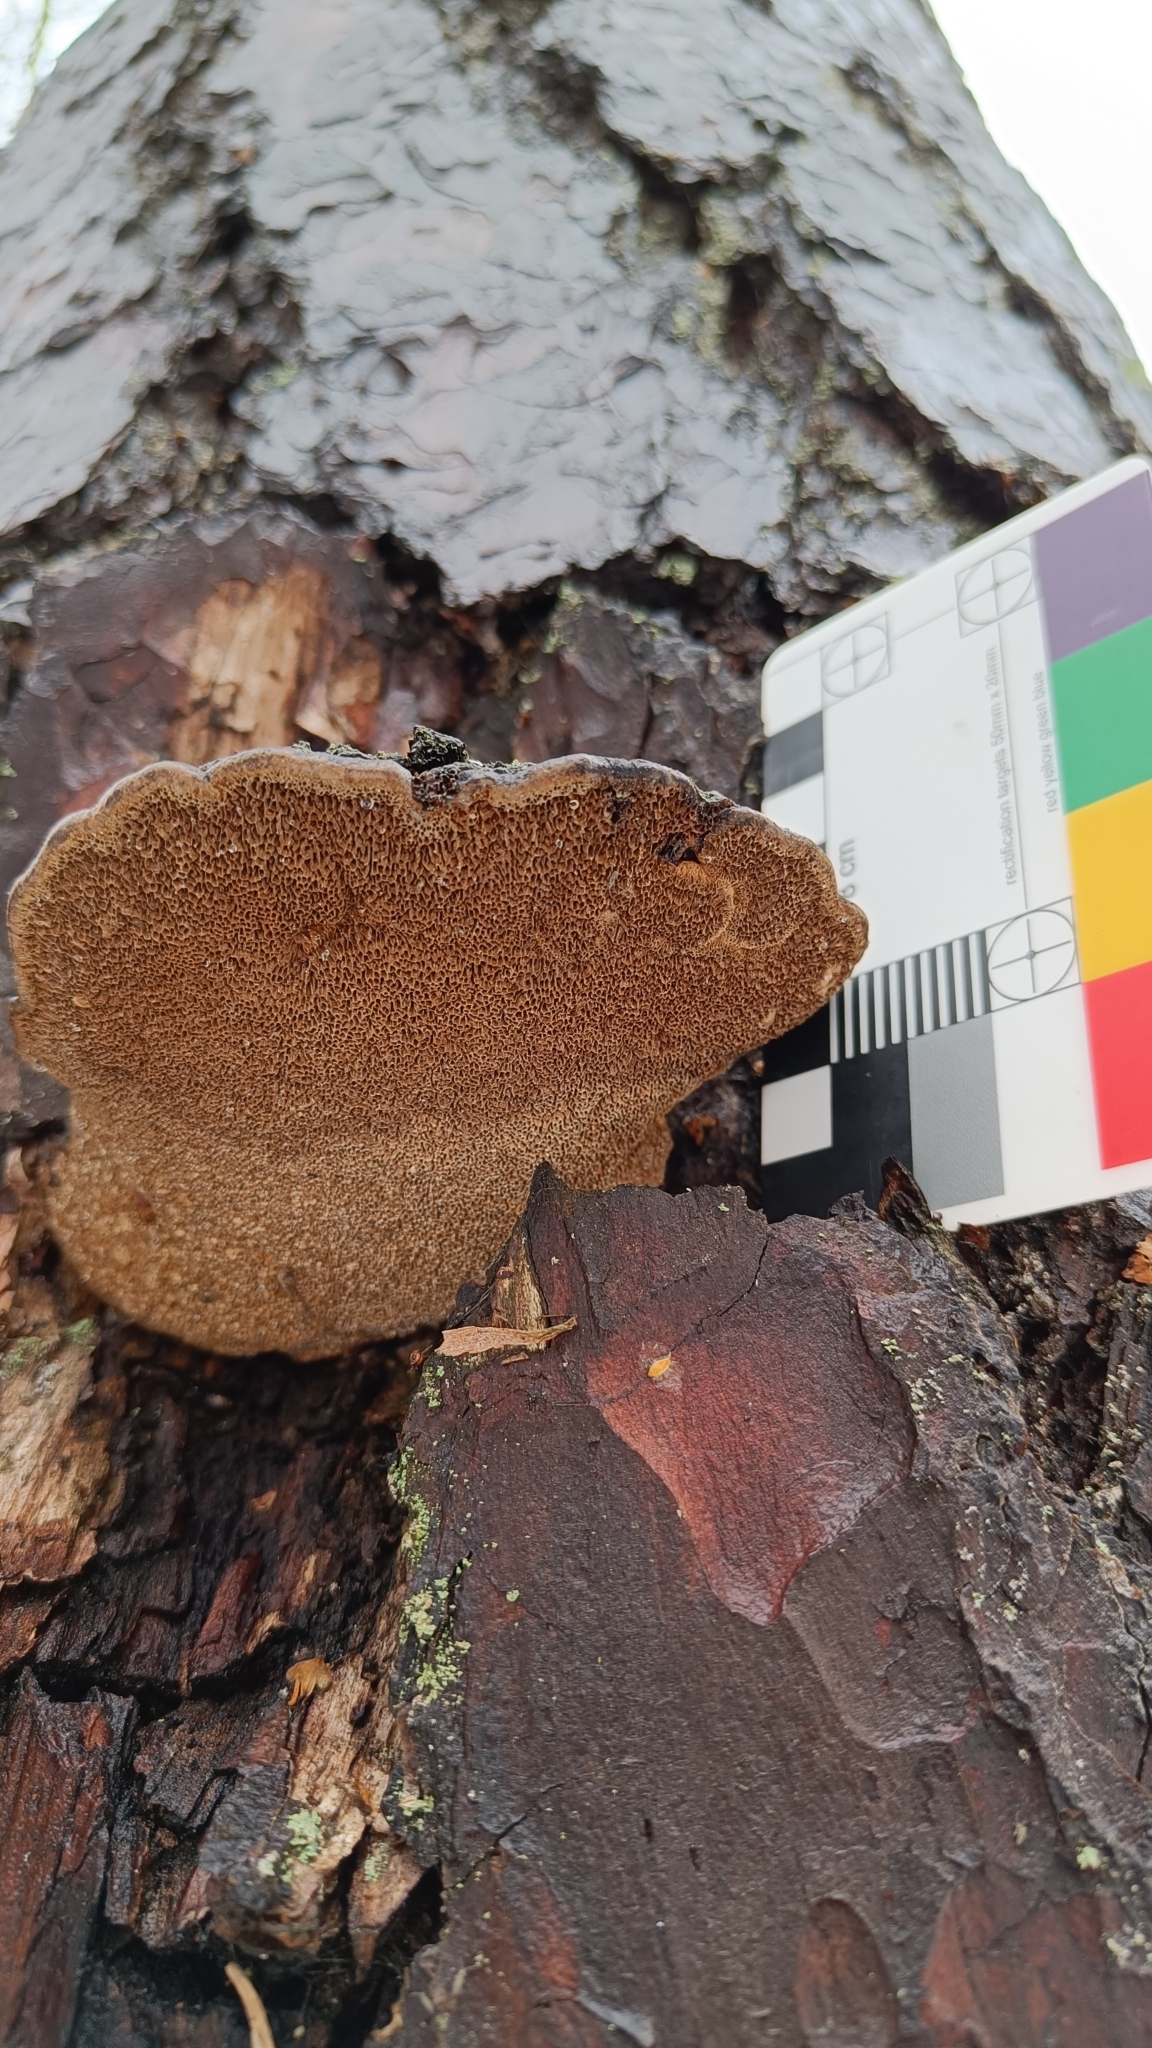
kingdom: Fungi
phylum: Basidiomycota
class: Agaricomycetes
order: Hymenochaetales
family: Hymenochaetaceae
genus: Porodaedalea
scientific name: Porodaedalea pini
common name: Pine bracket
